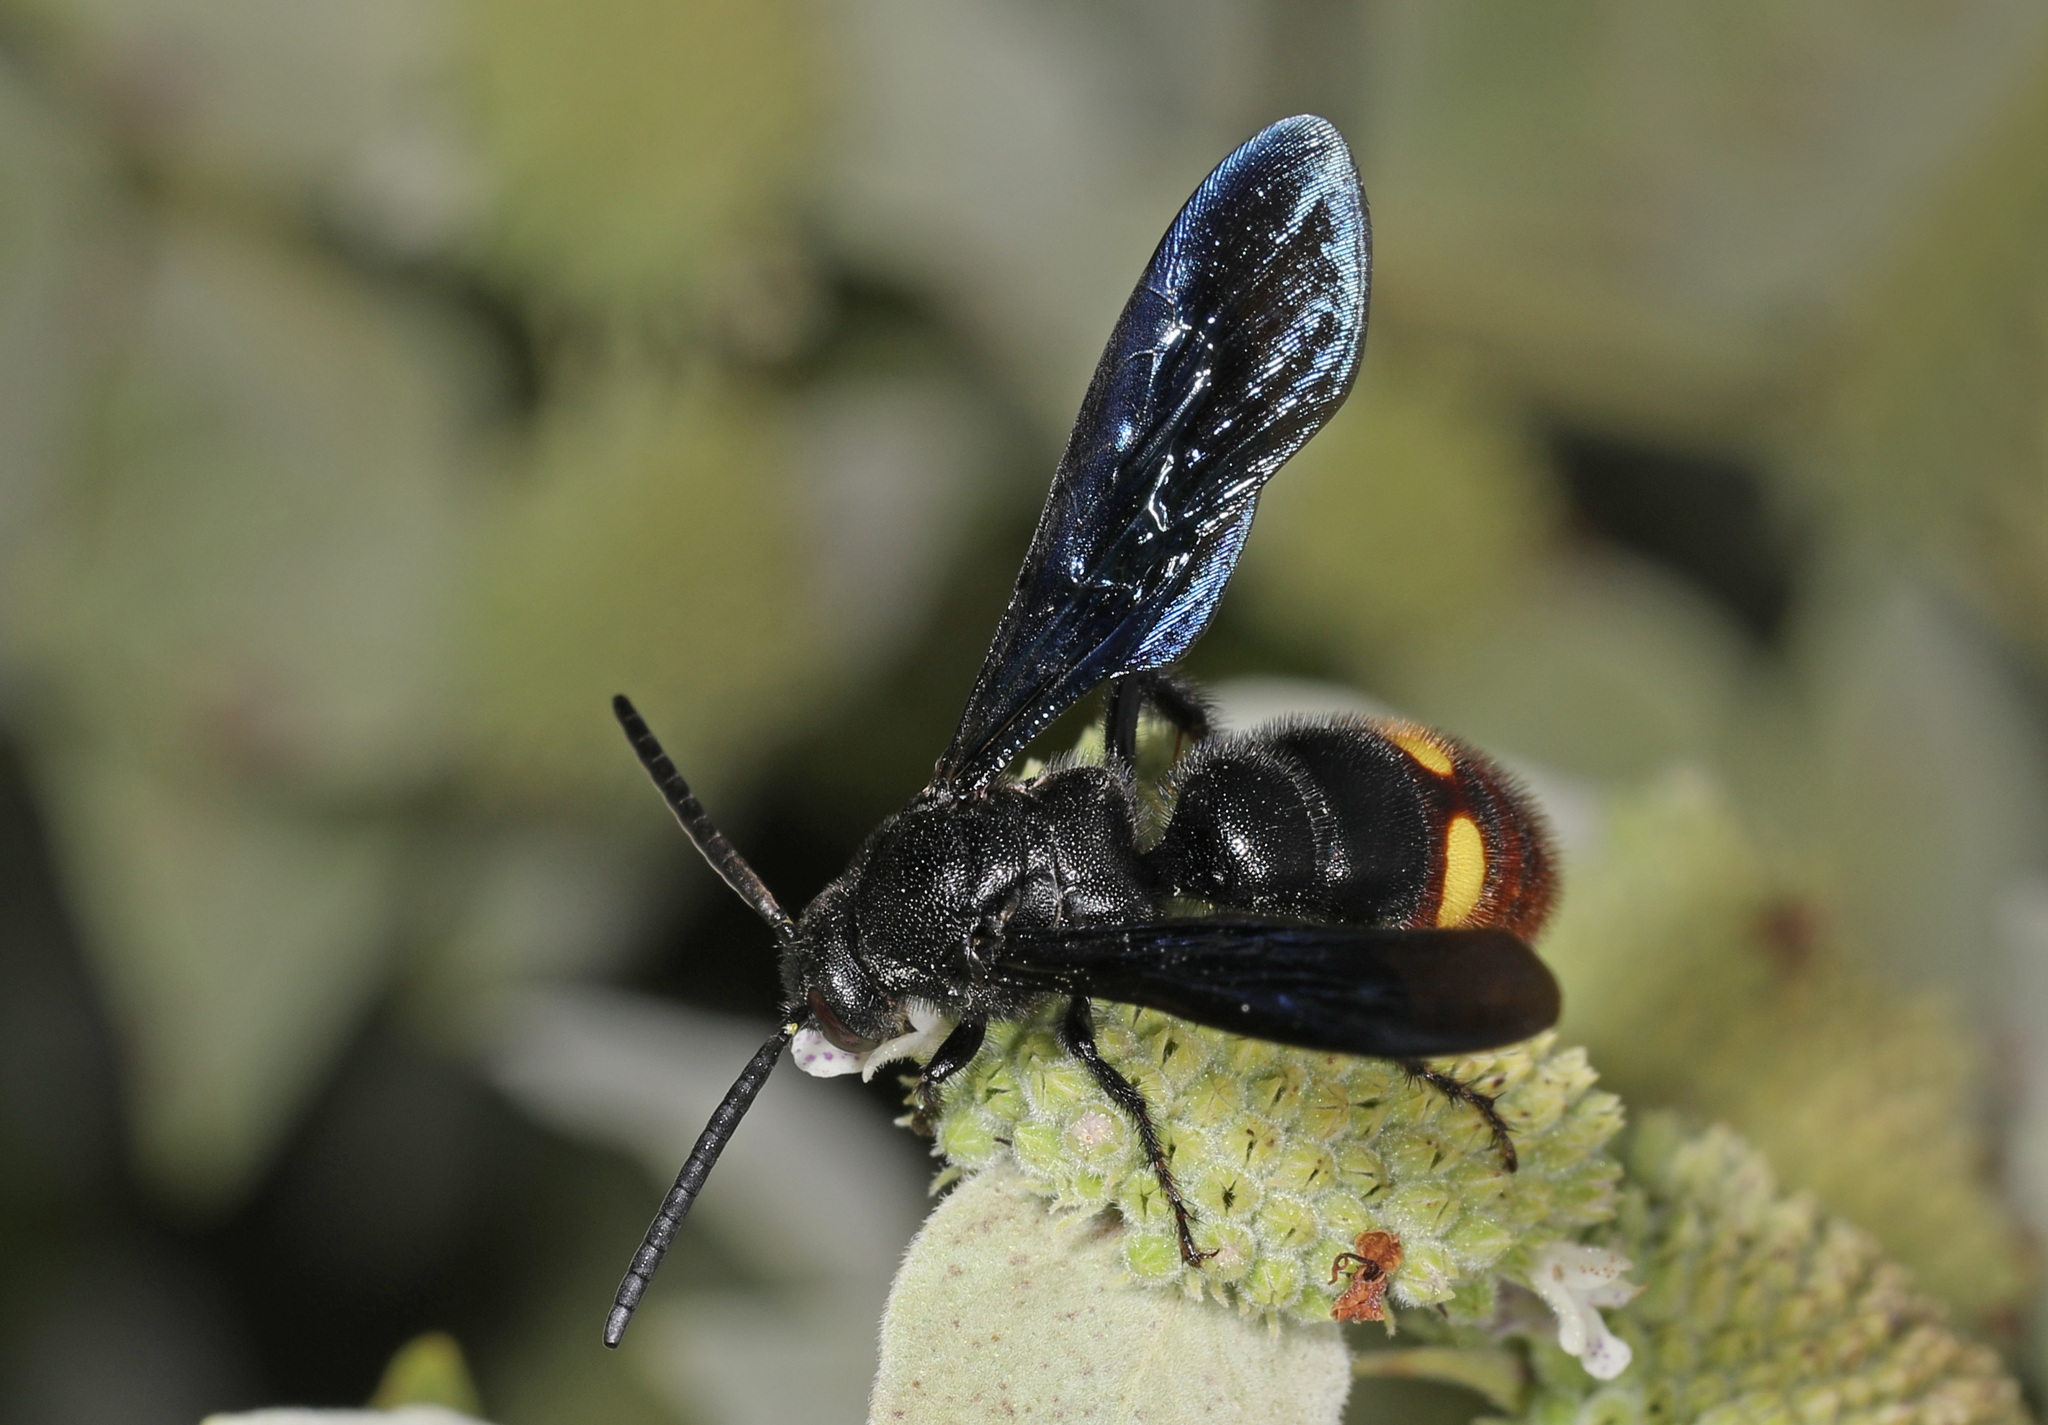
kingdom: Animalia
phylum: Arthropoda
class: Insecta
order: Hymenoptera
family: Scoliidae
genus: Scolia
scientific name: Scolia dubia
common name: Blue-winged scoliid wasp
